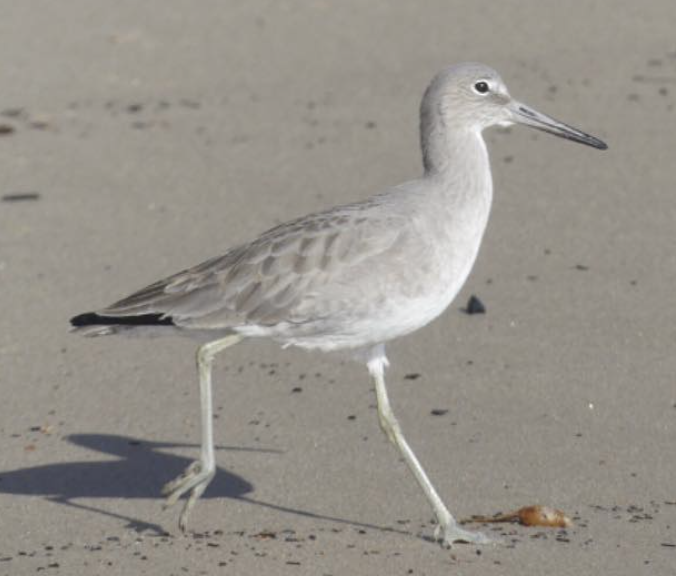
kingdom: Animalia
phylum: Chordata
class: Aves
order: Charadriiformes
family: Scolopacidae
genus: Tringa
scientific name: Tringa semipalmata
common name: Willet
